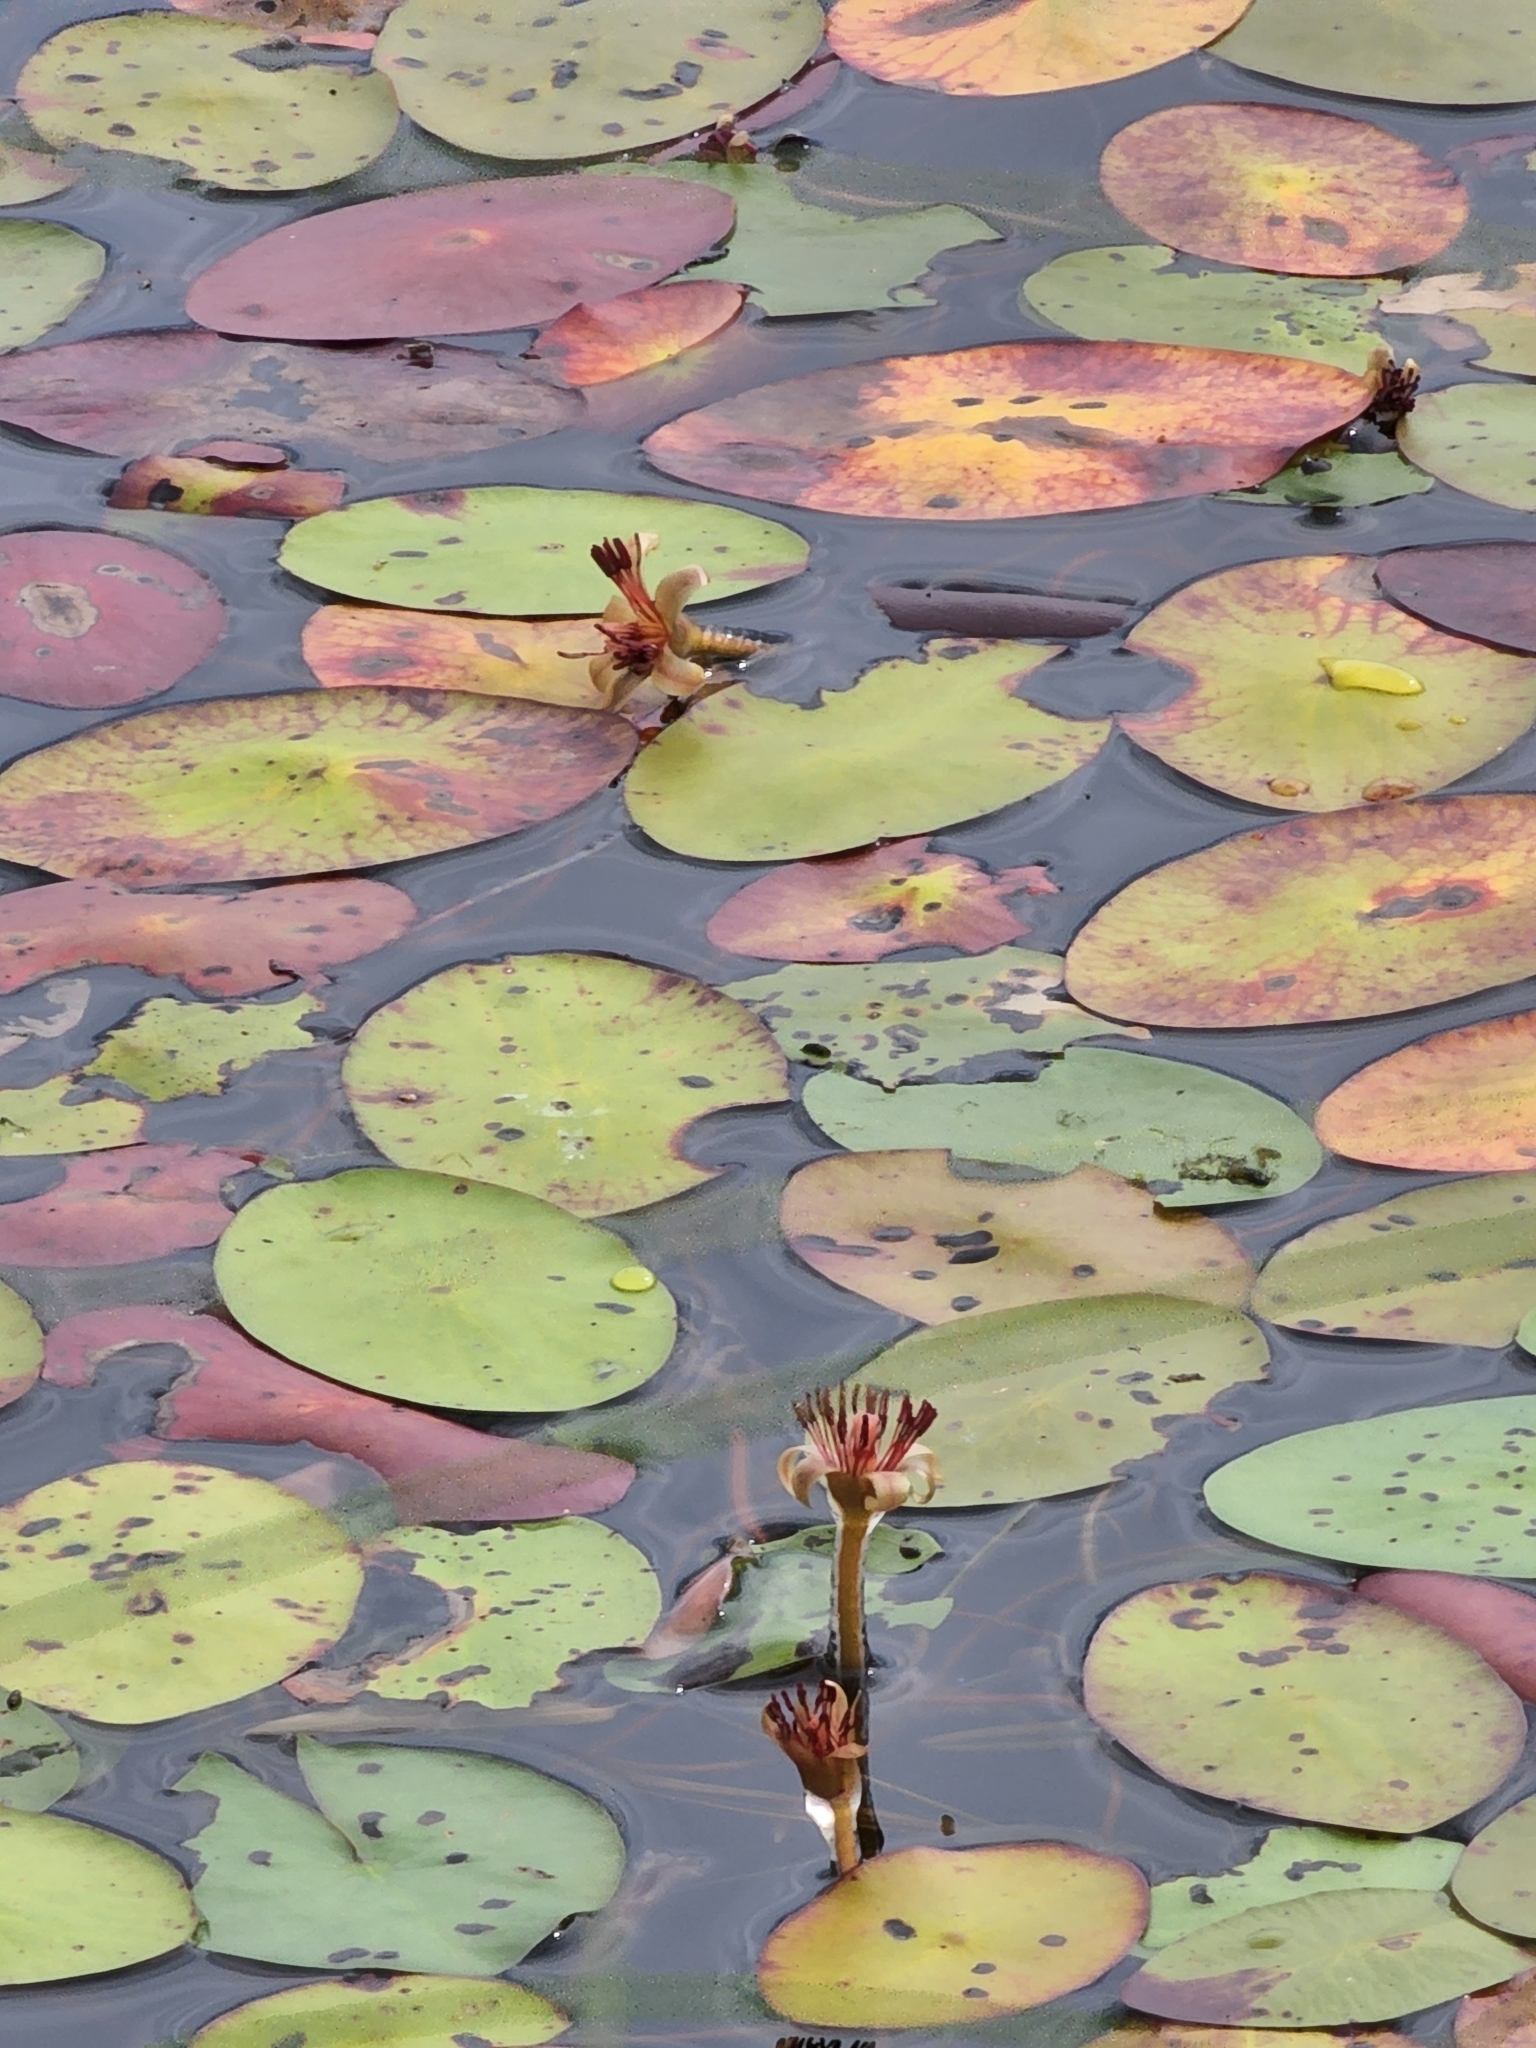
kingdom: Plantae
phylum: Tracheophyta
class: Magnoliopsida
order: Nymphaeales
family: Cabombaceae
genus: Brasenia
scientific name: Brasenia schreberi
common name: Water-shield
